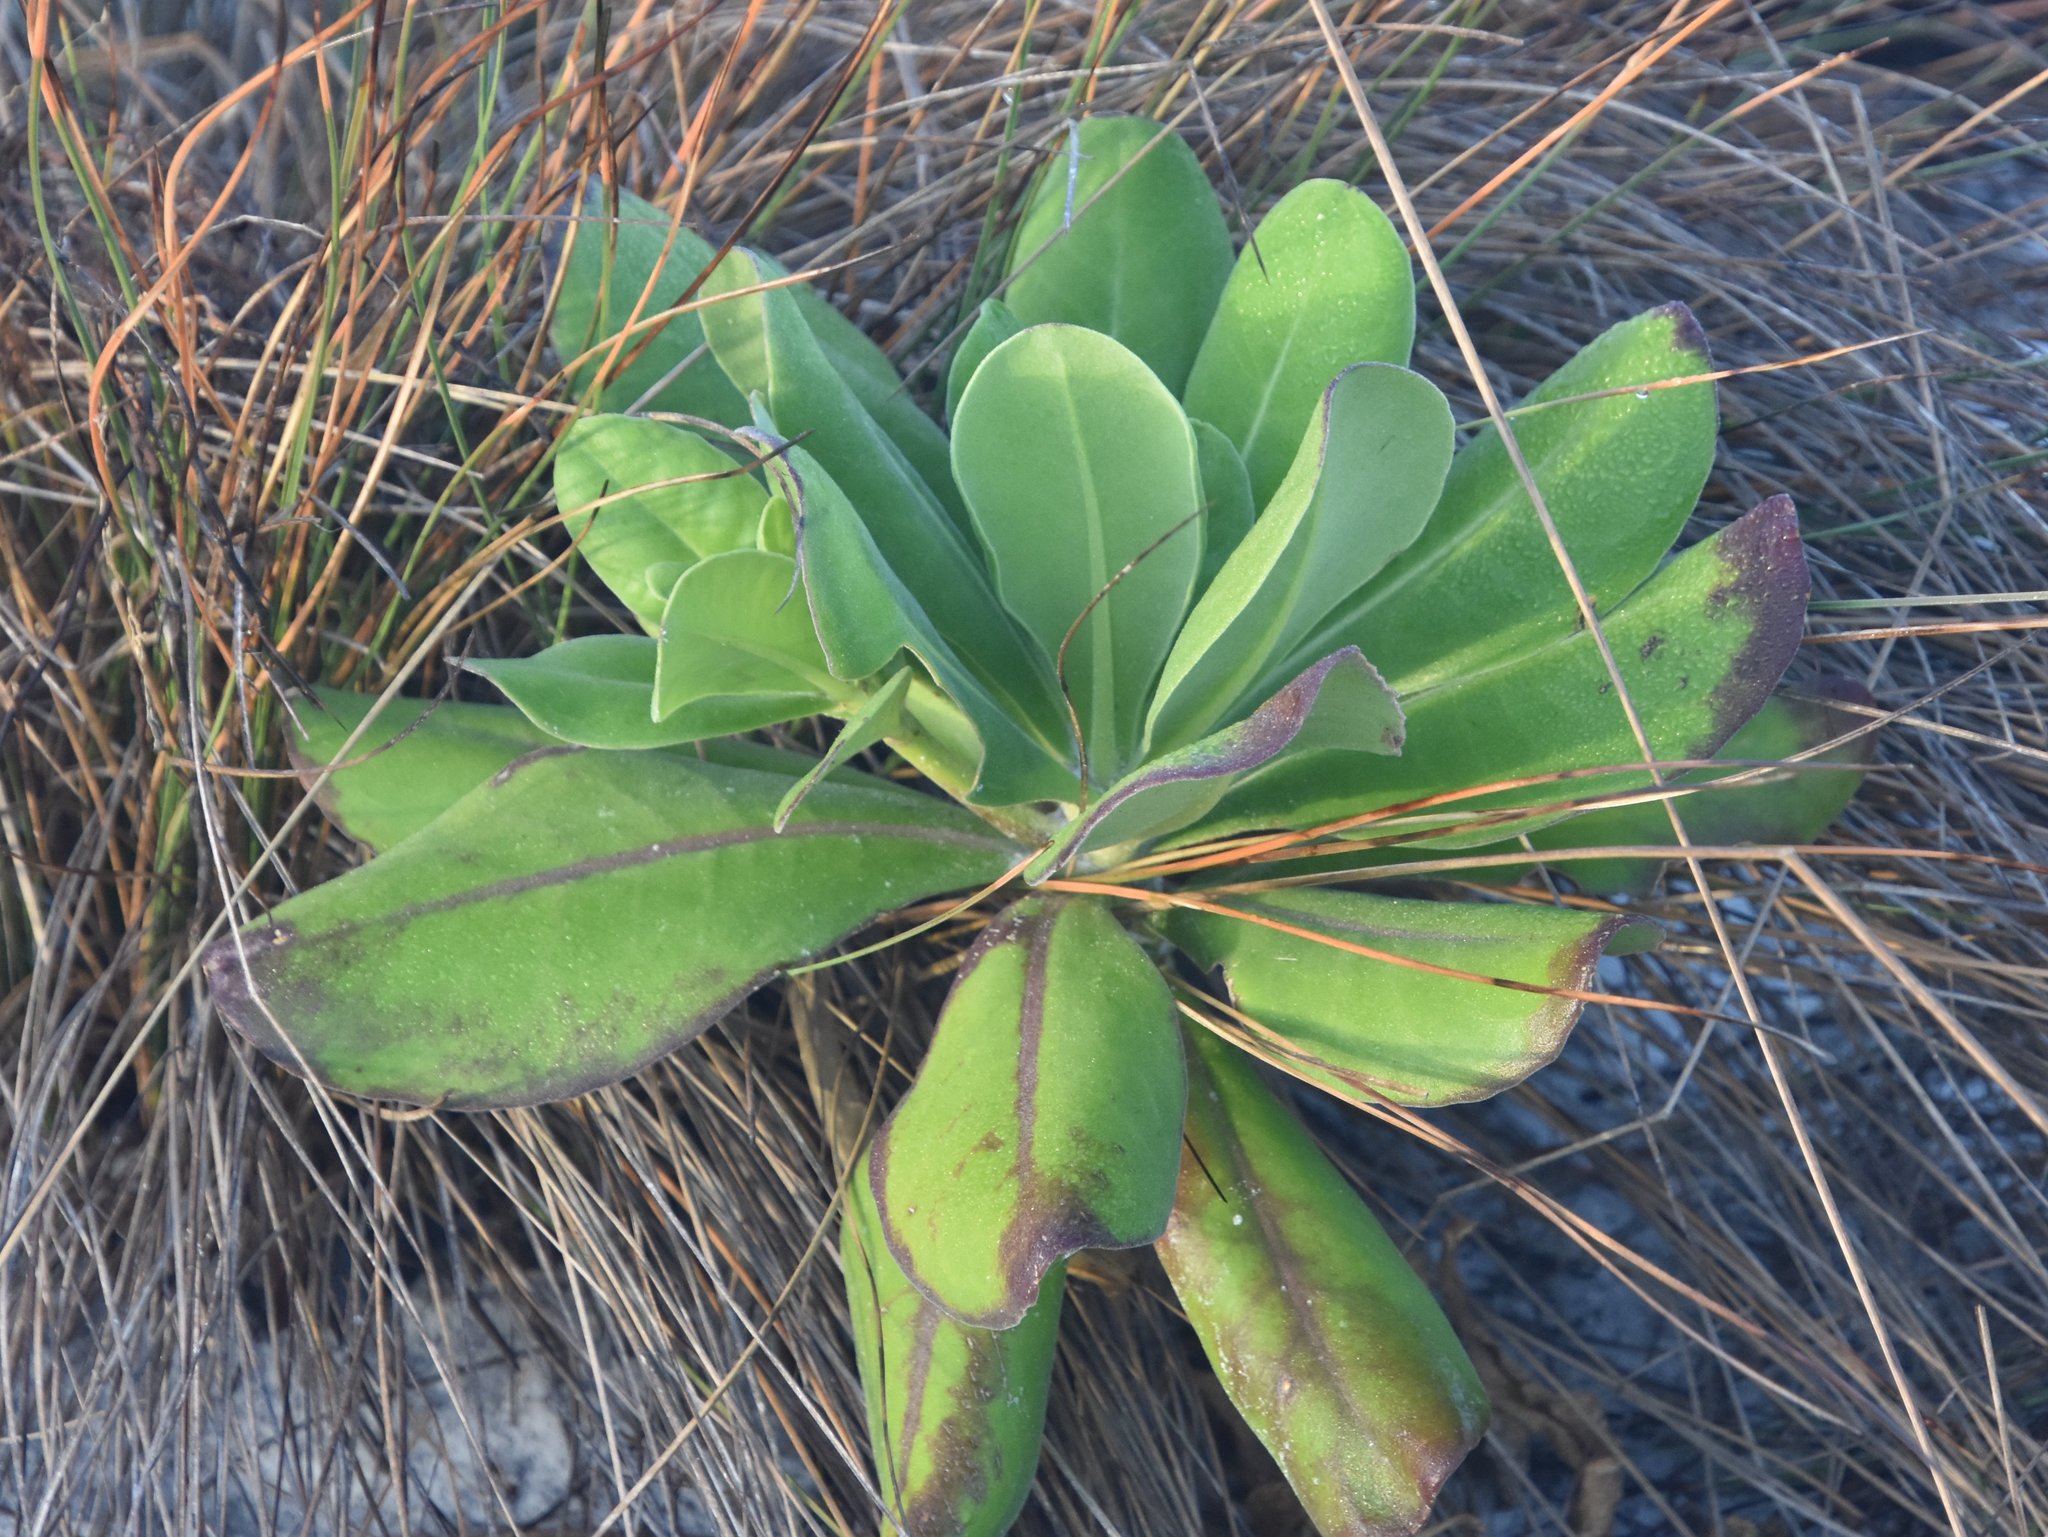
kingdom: Plantae
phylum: Tracheophyta
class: Magnoliopsida
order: Asterales
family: Goodeniaceae
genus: Scaevola
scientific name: Scaevola taccada
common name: Sea lettucetree
